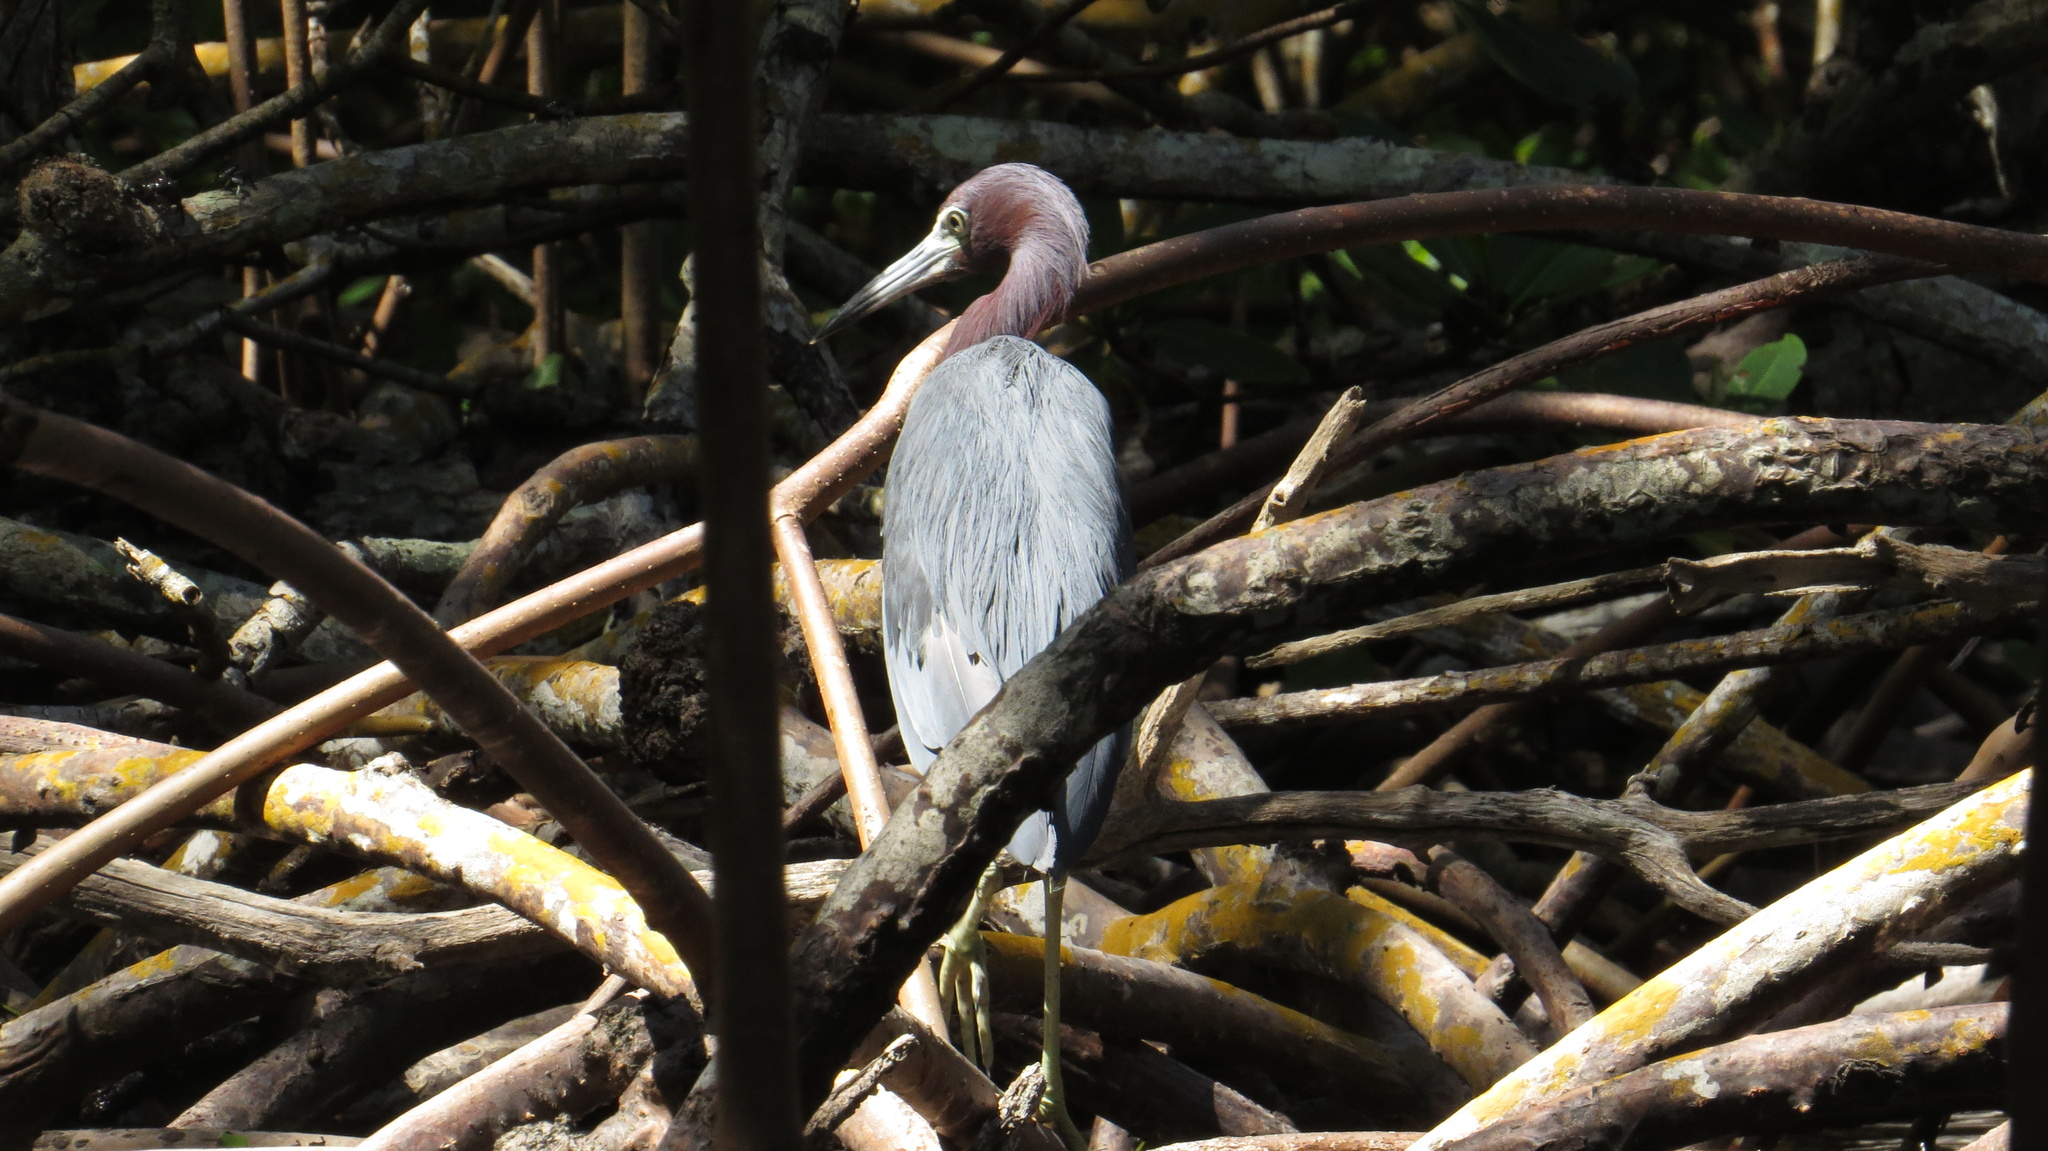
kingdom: Animalia
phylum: Chordata
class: Aves
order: Pelecaniformes
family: Ardeidae
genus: Egretta
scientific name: Egretta caerulea
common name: Little blue heron
